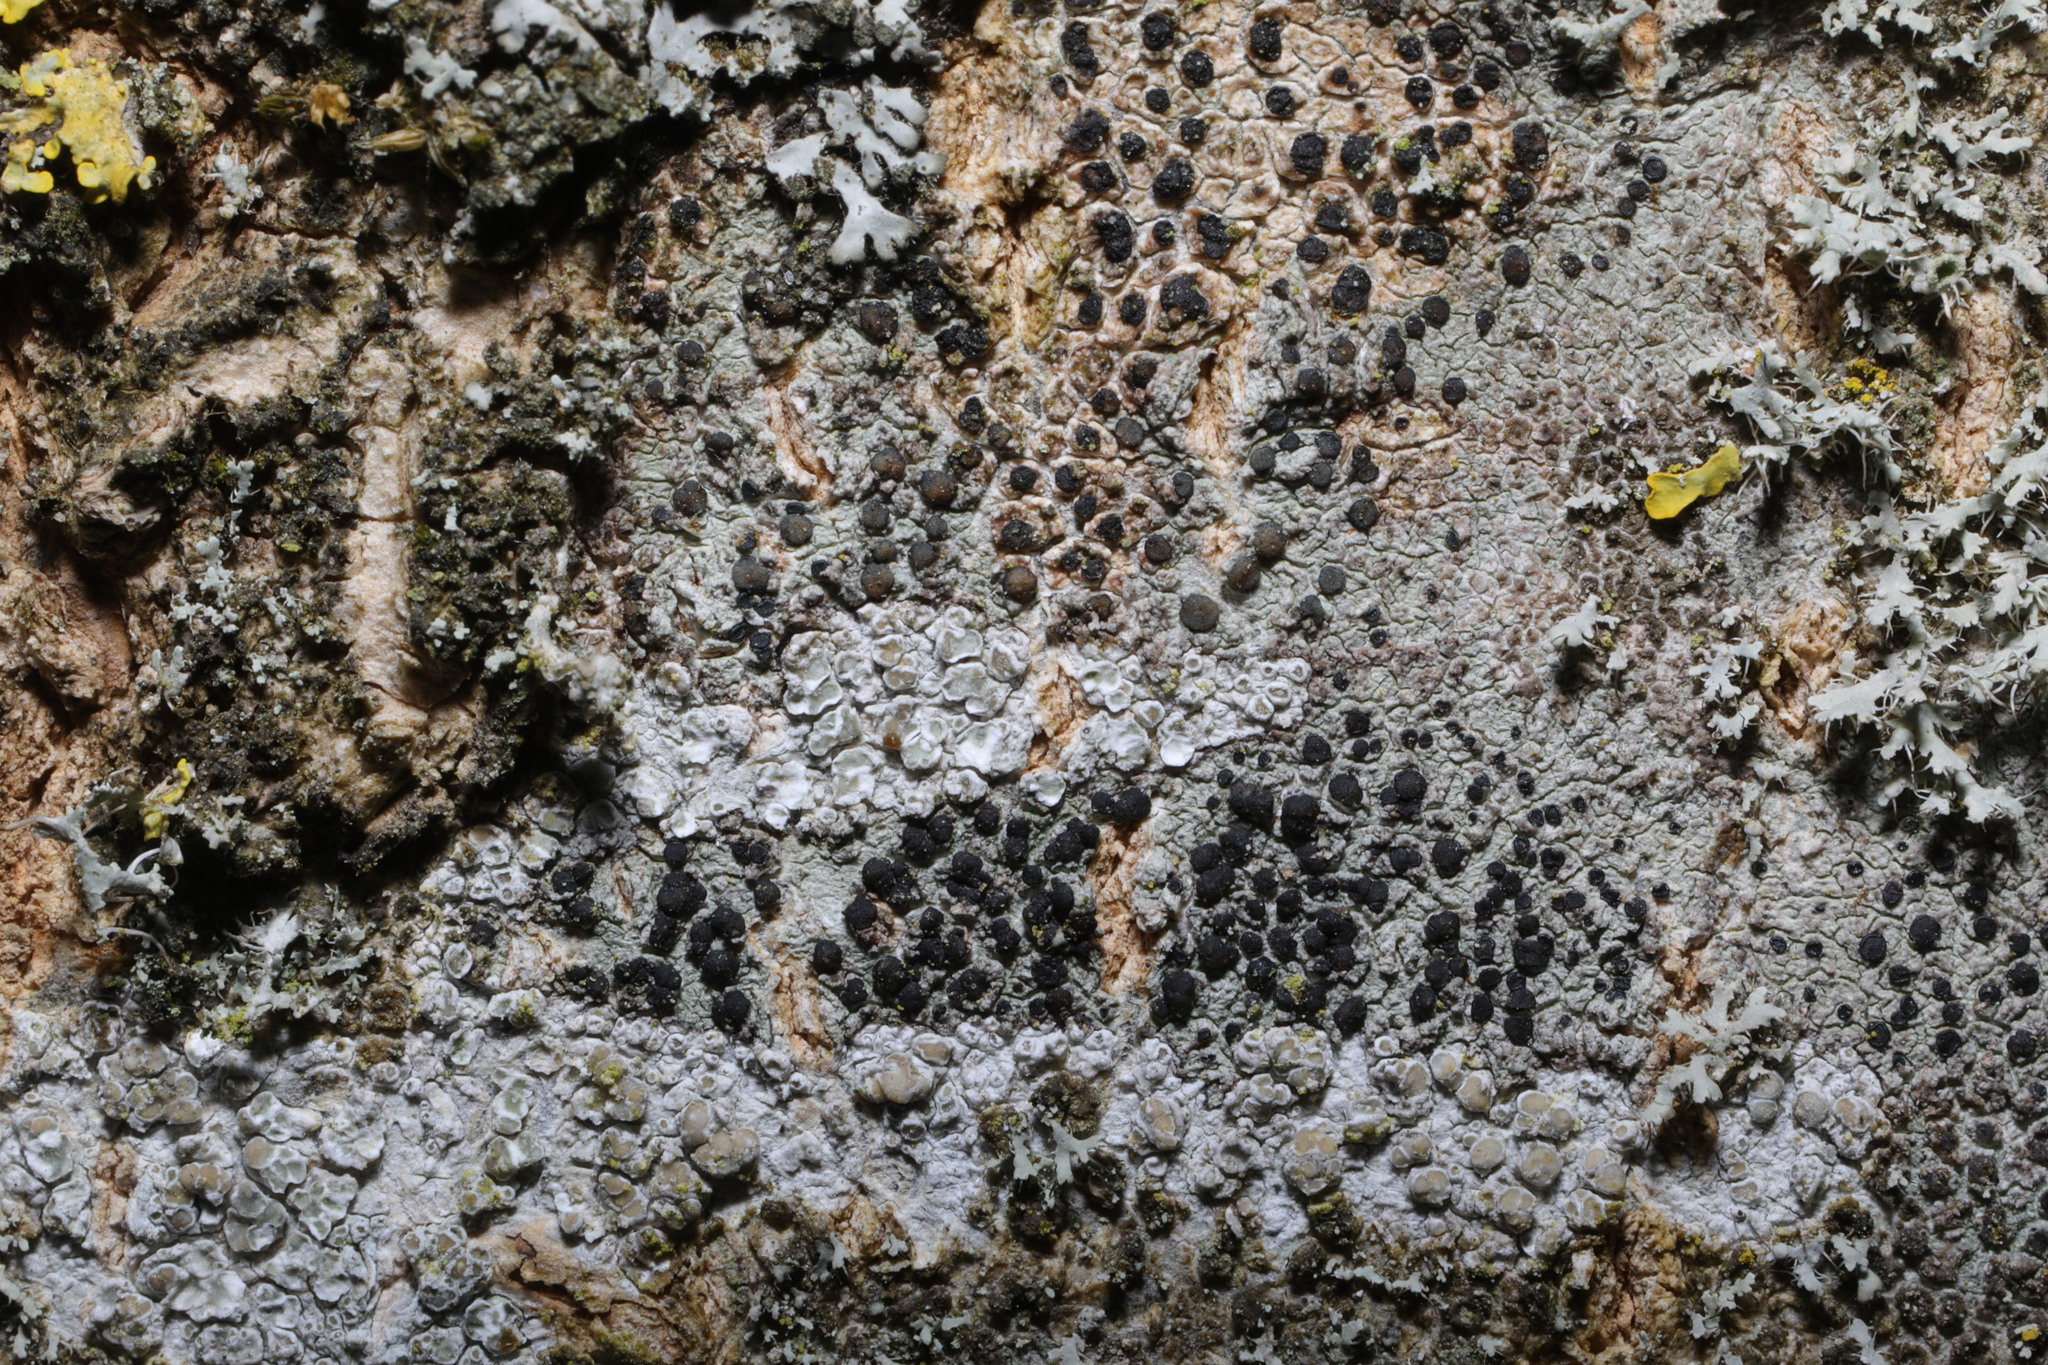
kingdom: Fungi
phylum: Ascomycota
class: Lecanoromycetes
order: Lecanorales
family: Lecanoraceae
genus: Lecidella
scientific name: Lecidella elaeochroma
